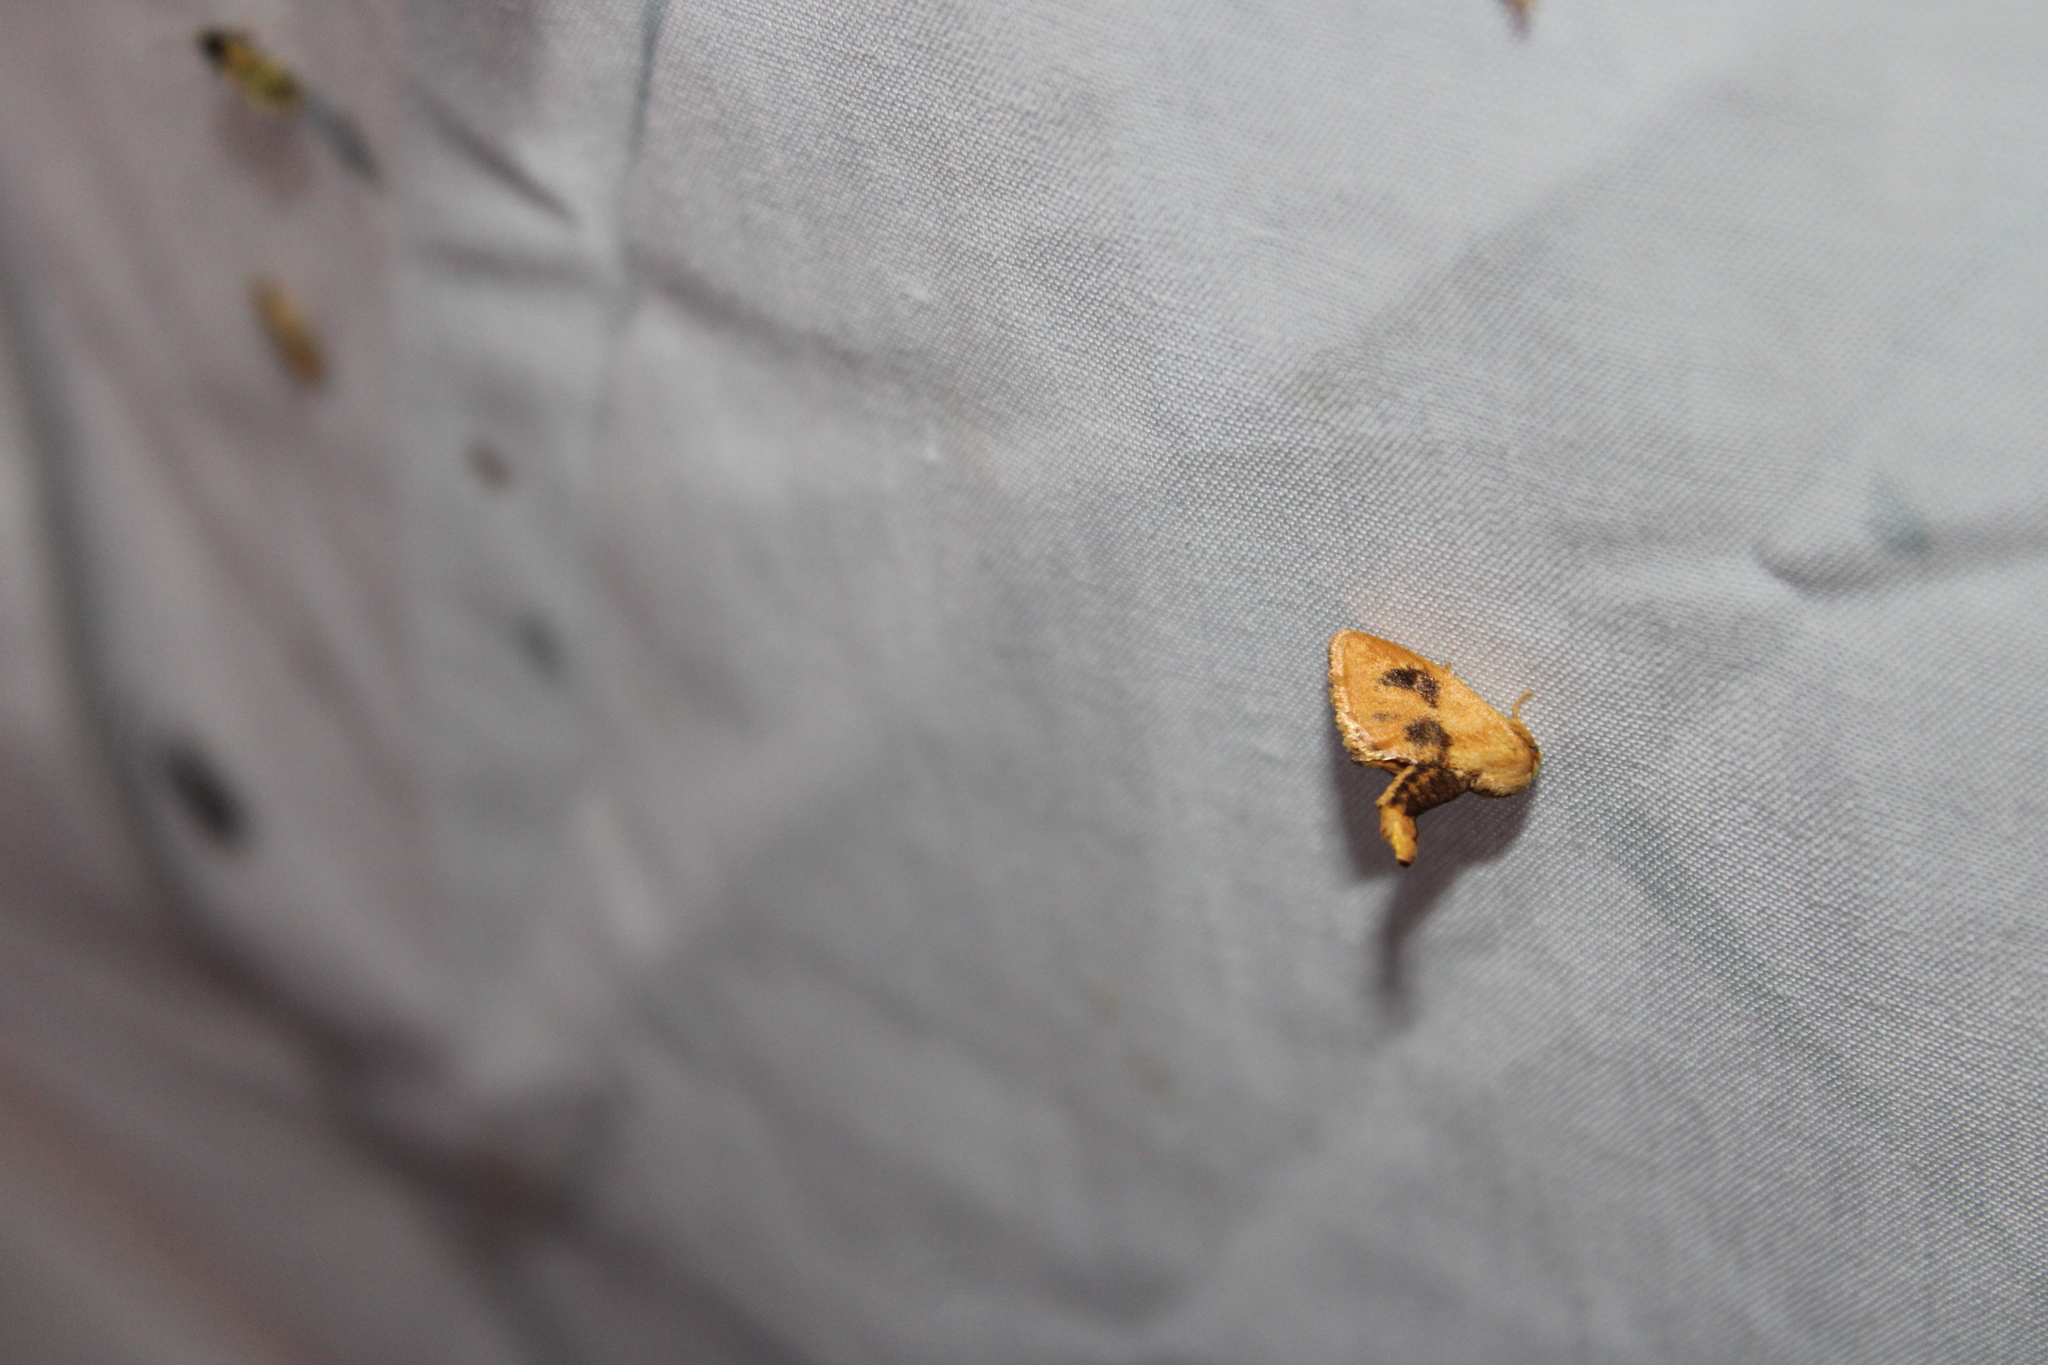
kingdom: Animalia
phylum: Arthropoda
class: Insecta
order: Lepidoptera
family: Limacodidae
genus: Tortricidia
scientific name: Tortricidia flexuosa
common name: Abbreviated button slug moth
